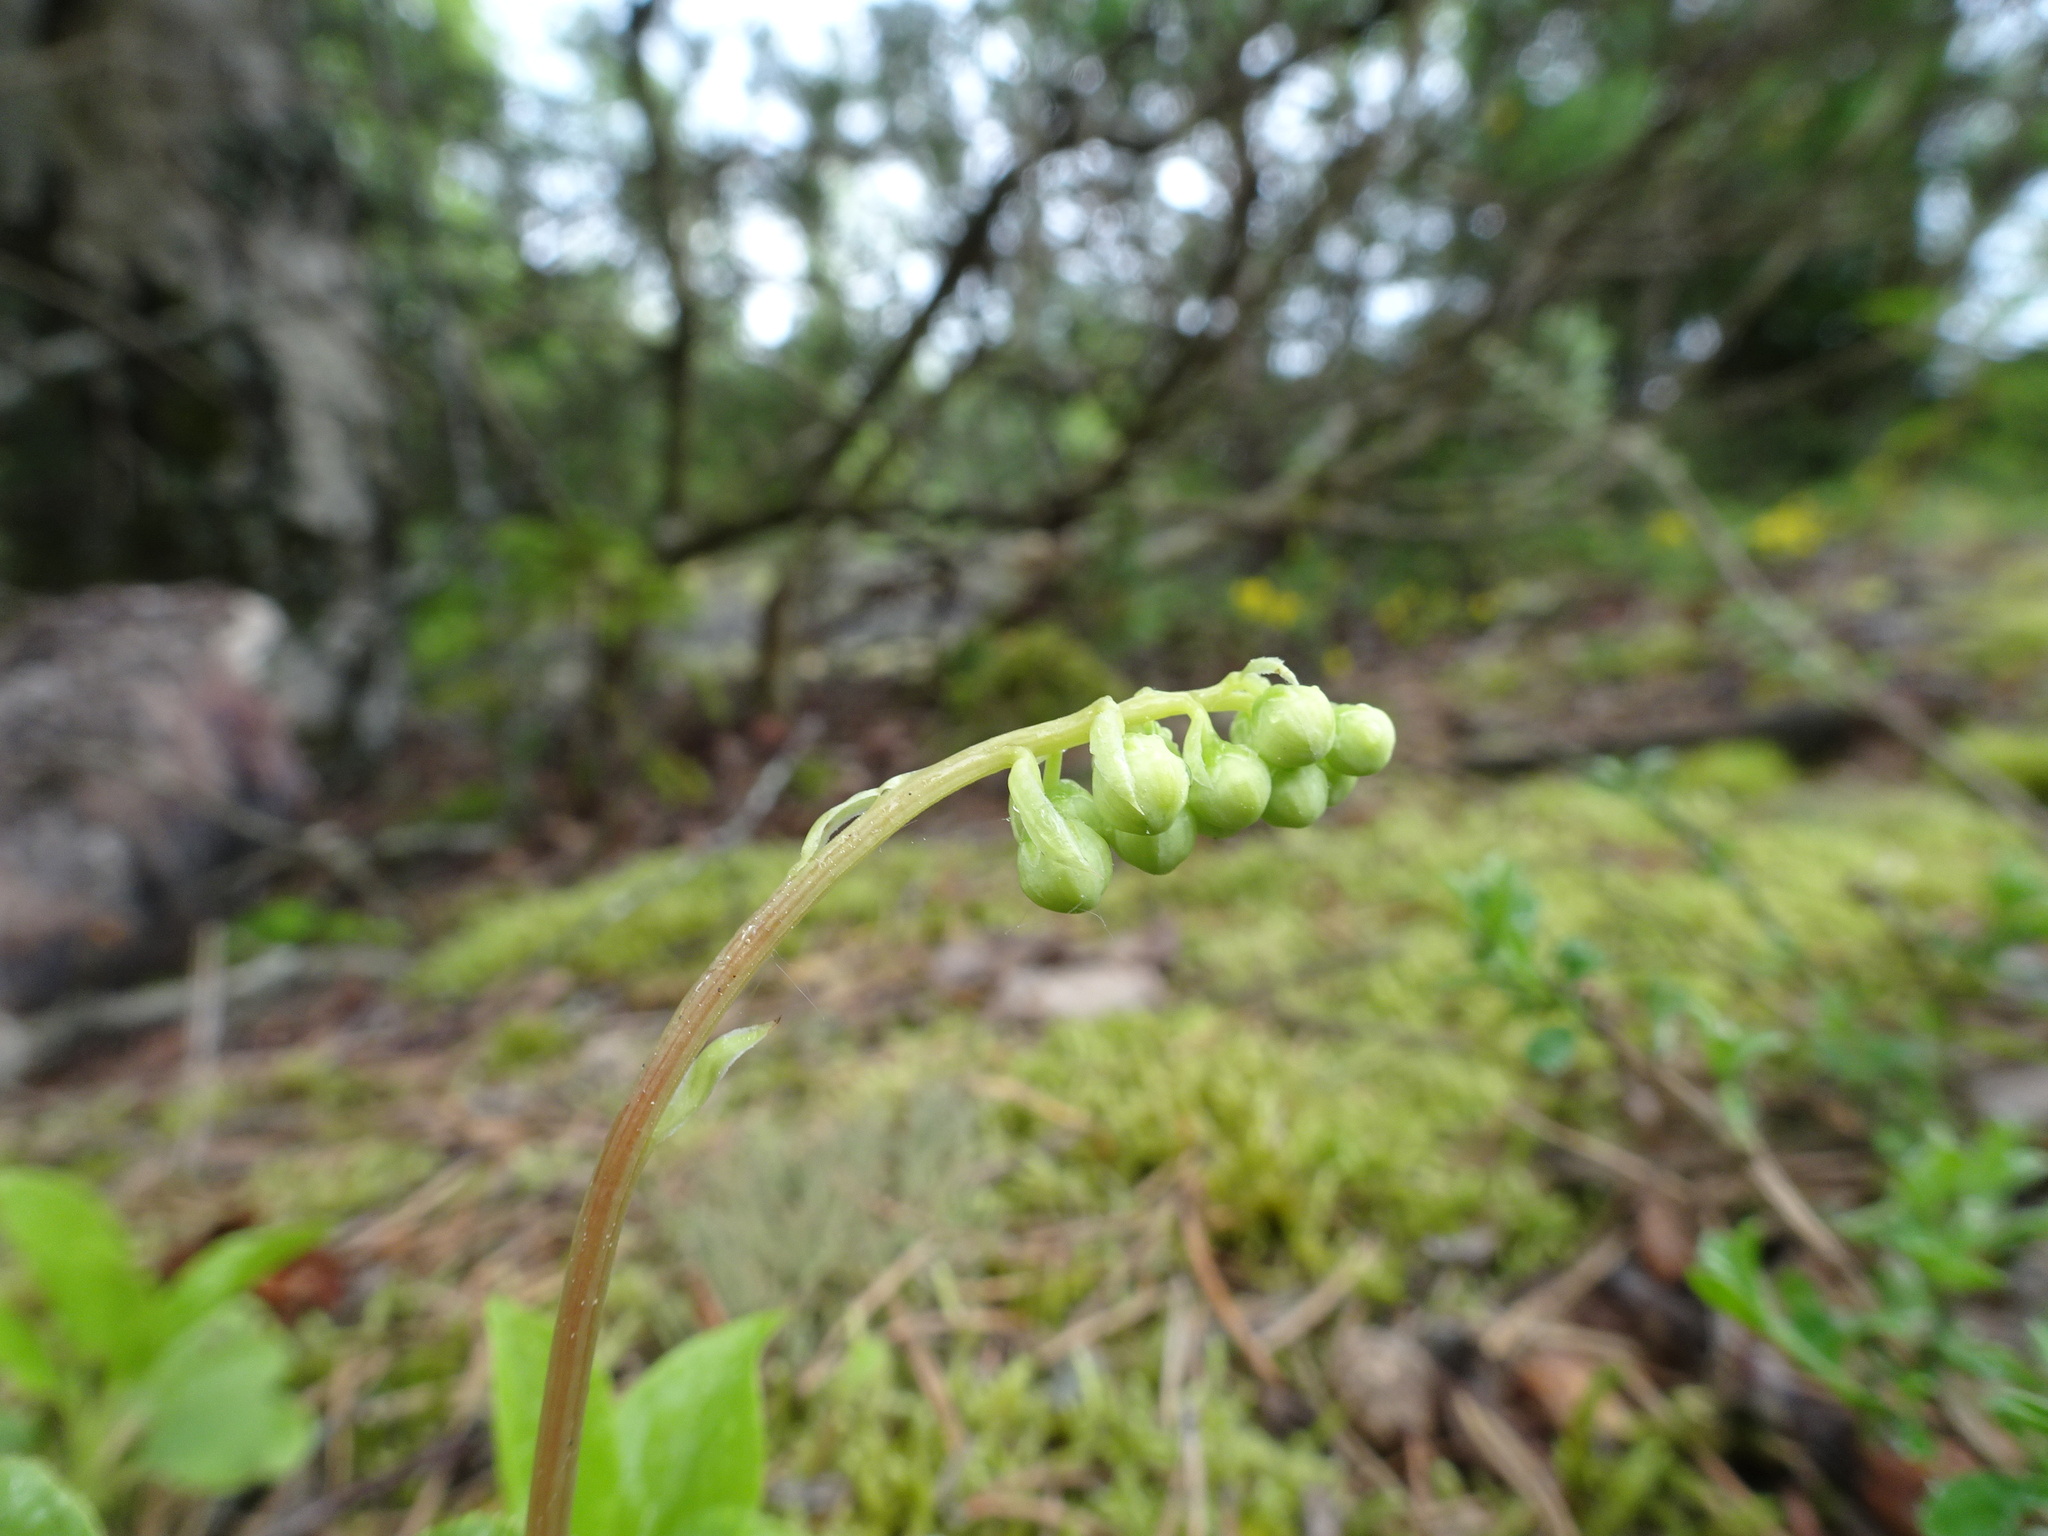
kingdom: Plantae
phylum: Tracheophyta
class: Magnoliopsida
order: Ericales
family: Ericaceae
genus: Orthilia
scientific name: Orthilia secunda
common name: One-sided orthilia
